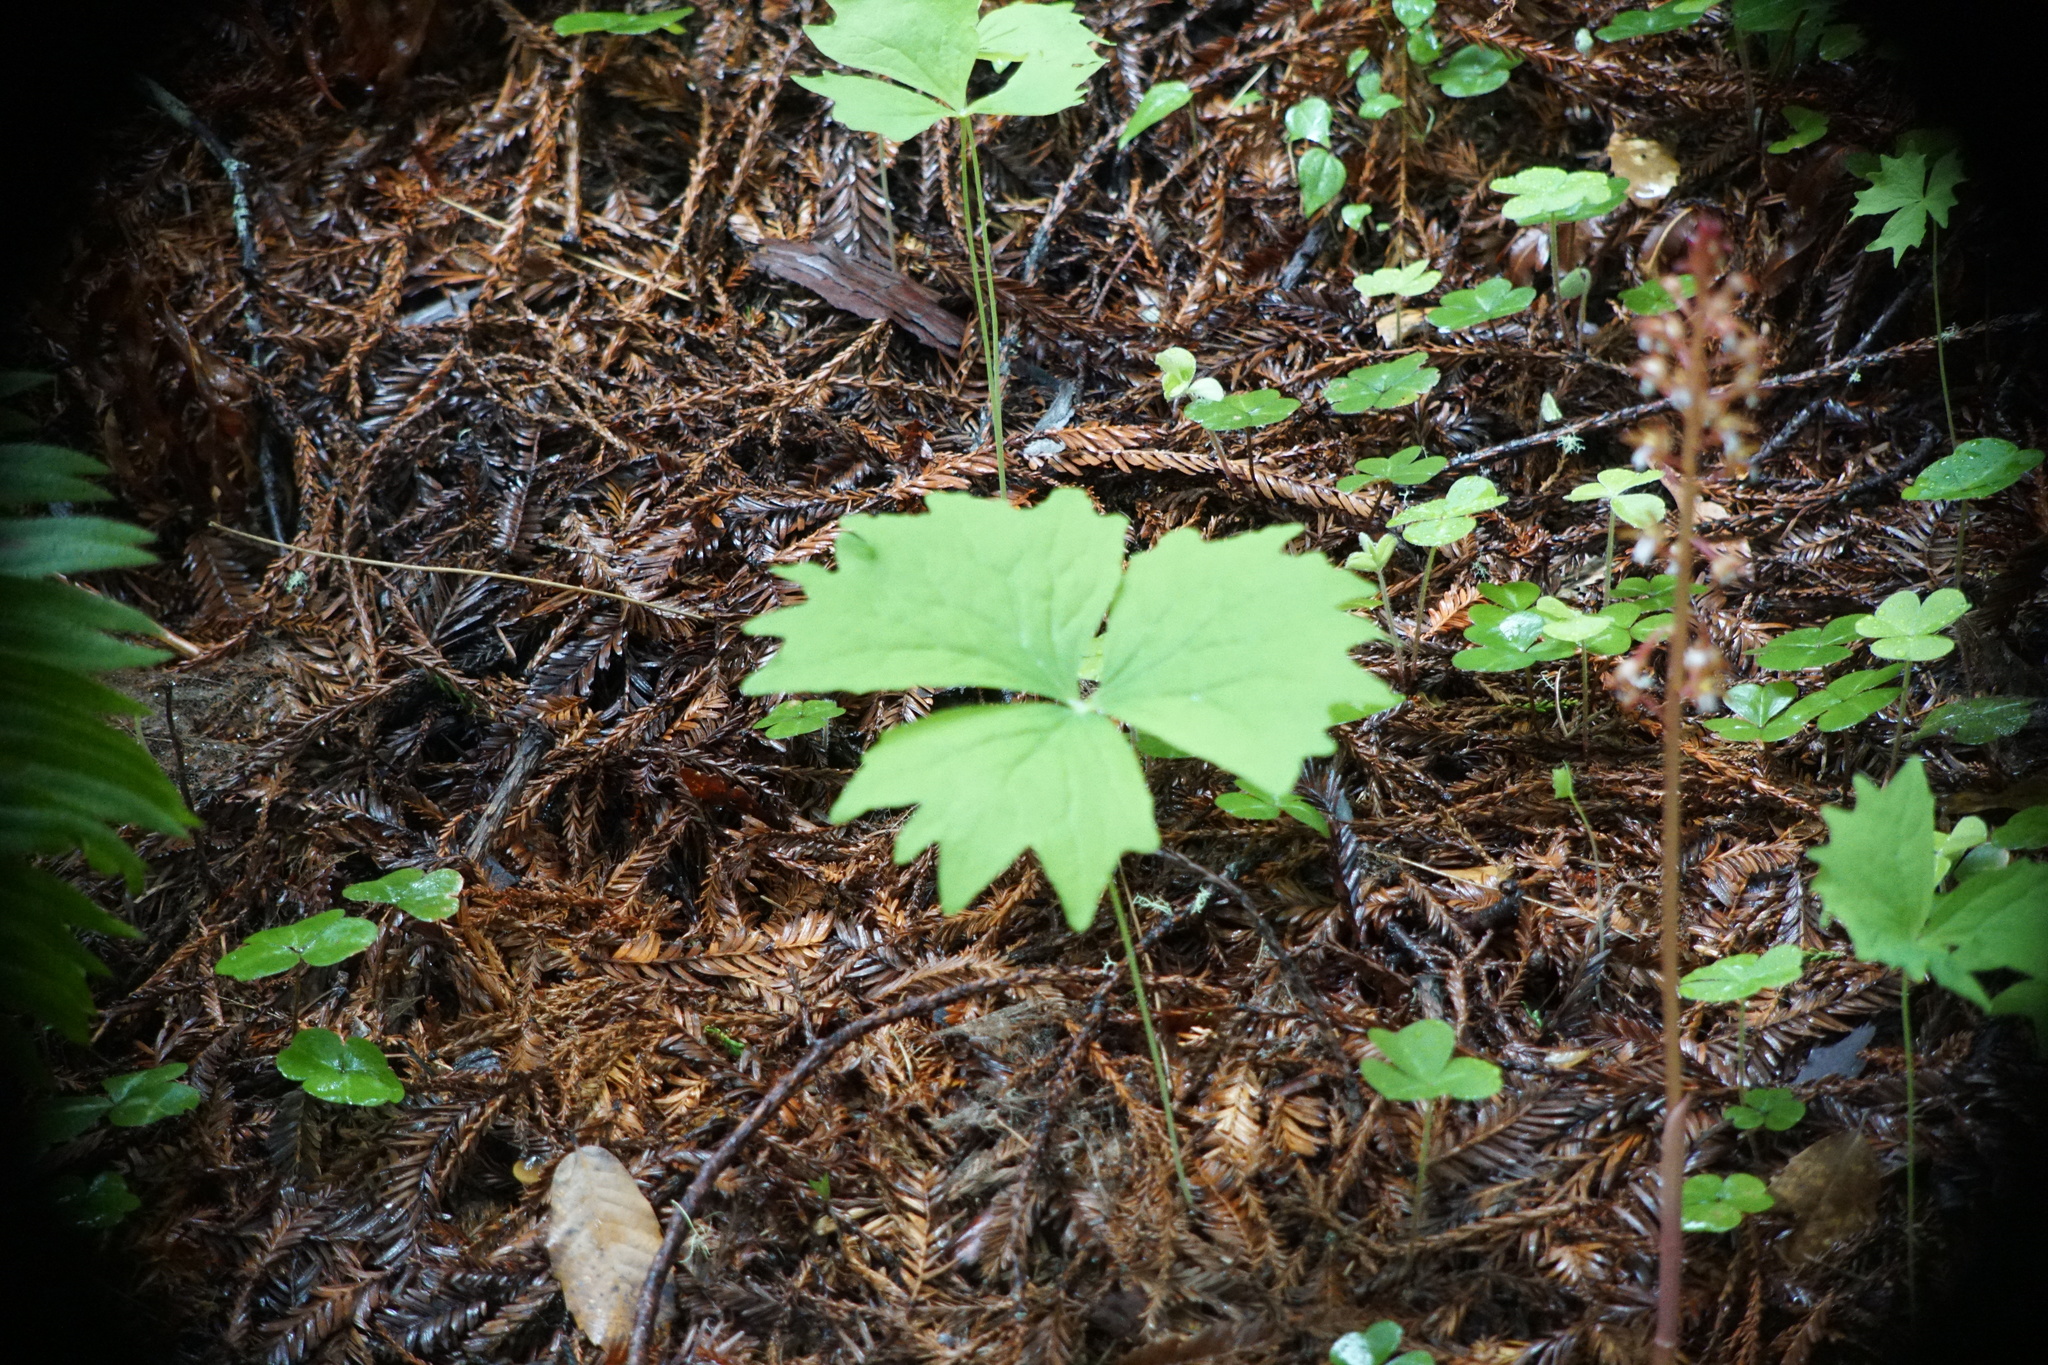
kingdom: Plantae
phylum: Tracheophyta
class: Magnoliopsida
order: Ranunculales
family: Berberidaceae
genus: Achlys
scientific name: Achlys triphylla
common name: Vanilla-leaf
